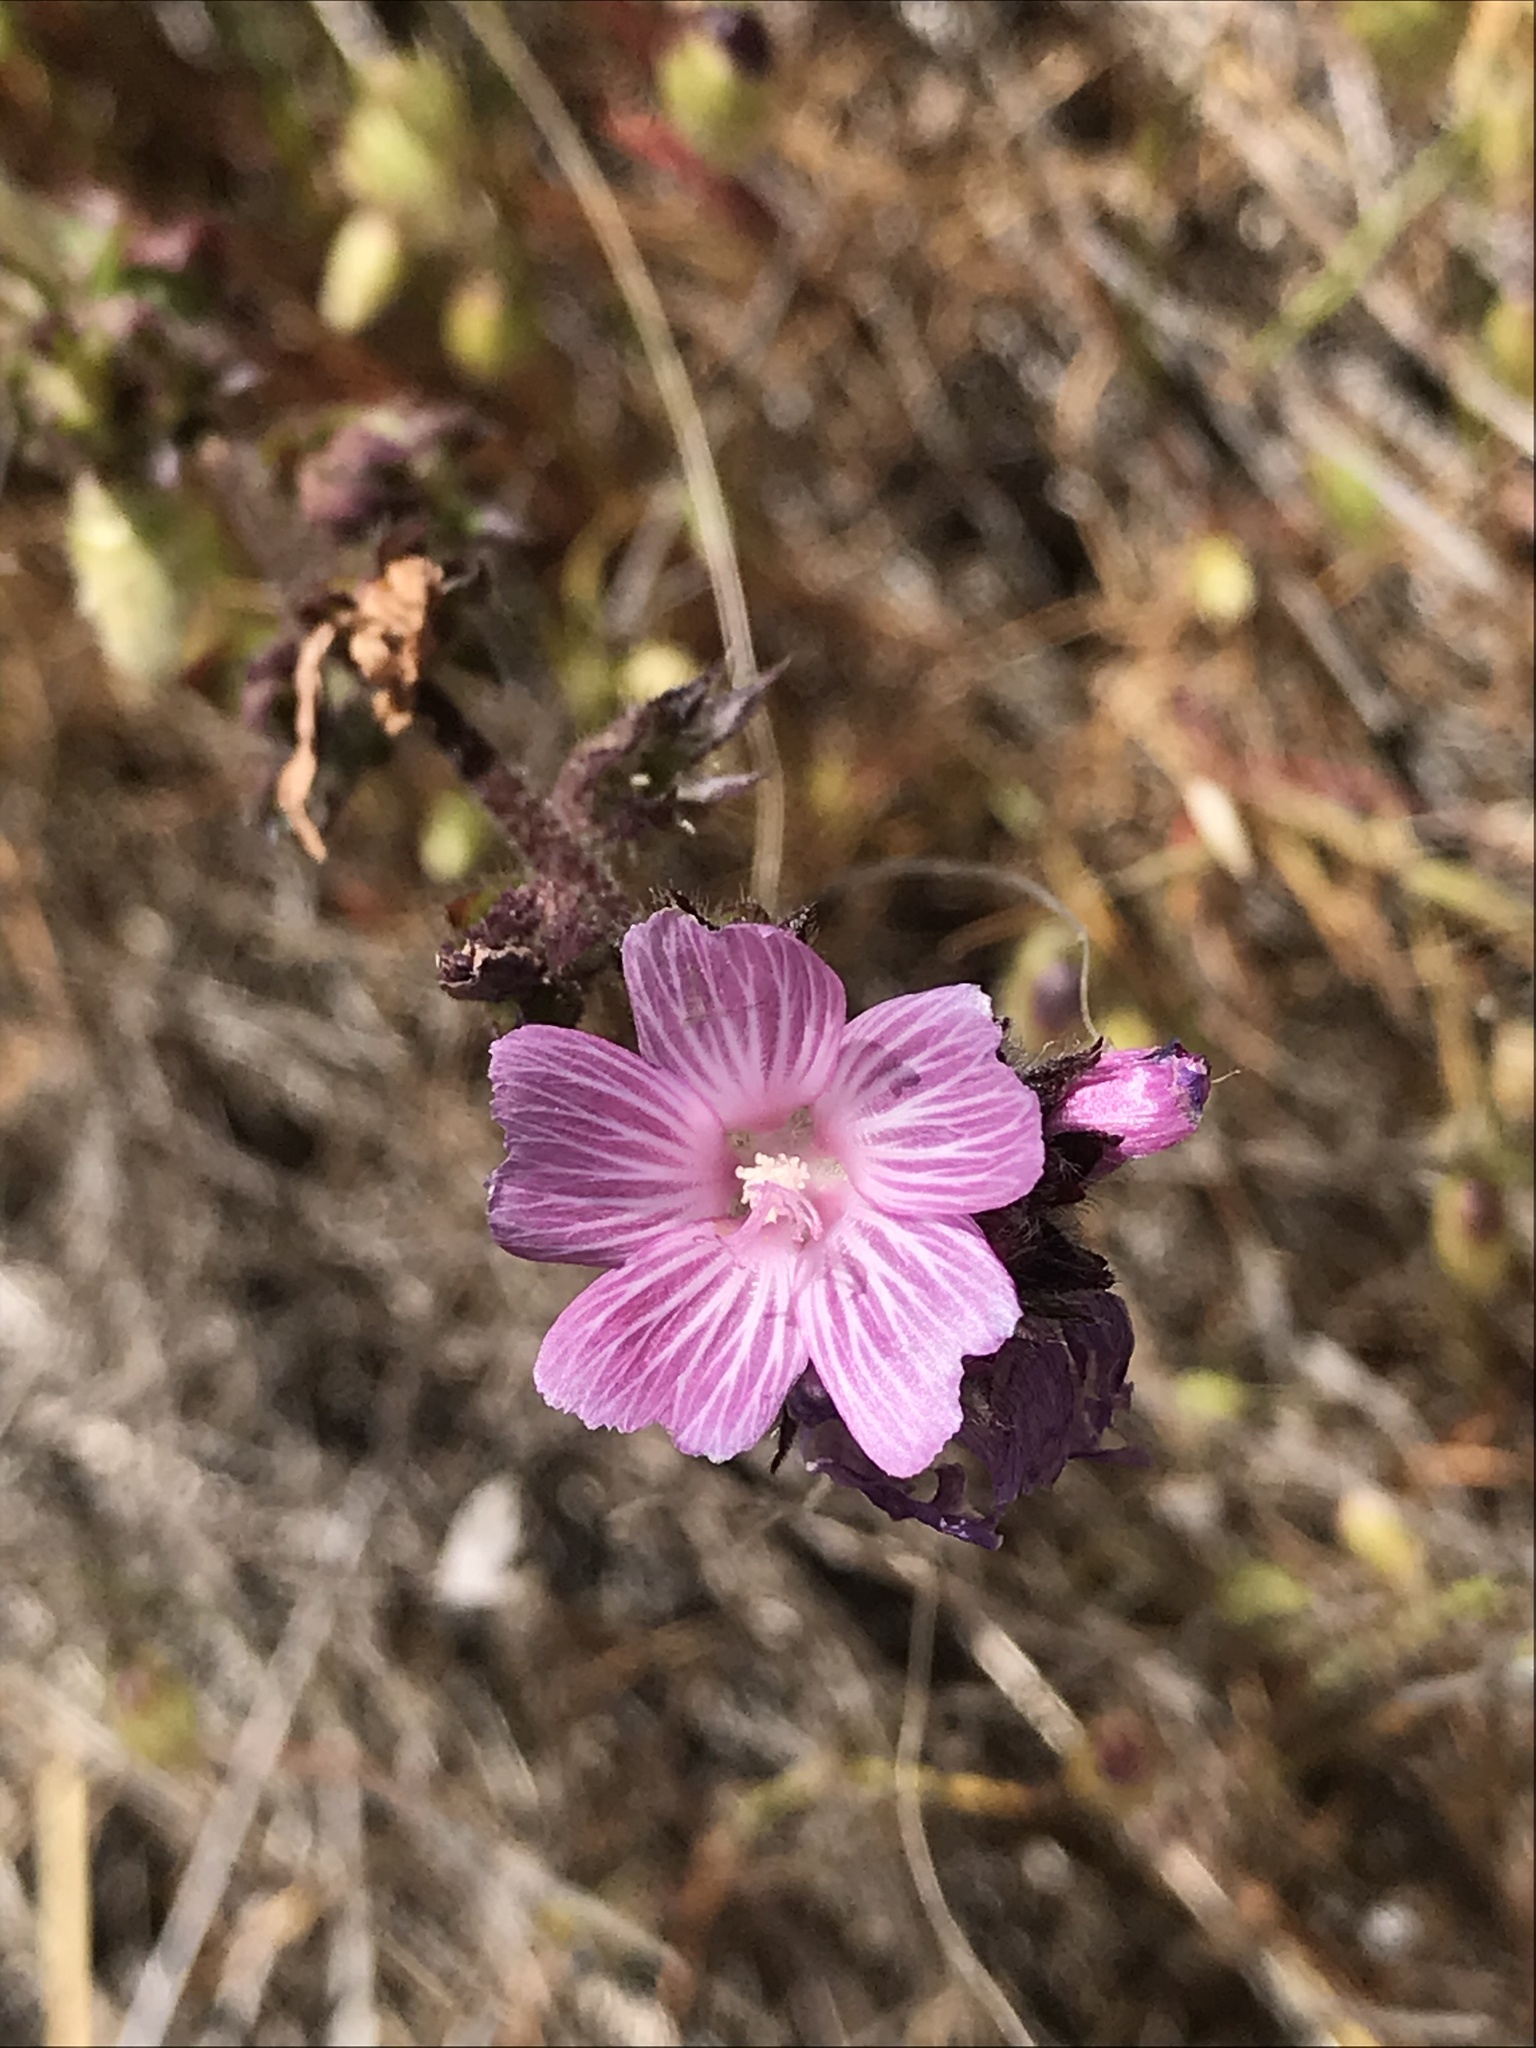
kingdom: Plantae
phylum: Tracheophyta
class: Magnoliopsida
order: Malvales
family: Malvaceae
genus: Sidalcea
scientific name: Sidalcea malviflora
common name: Greek mallow
